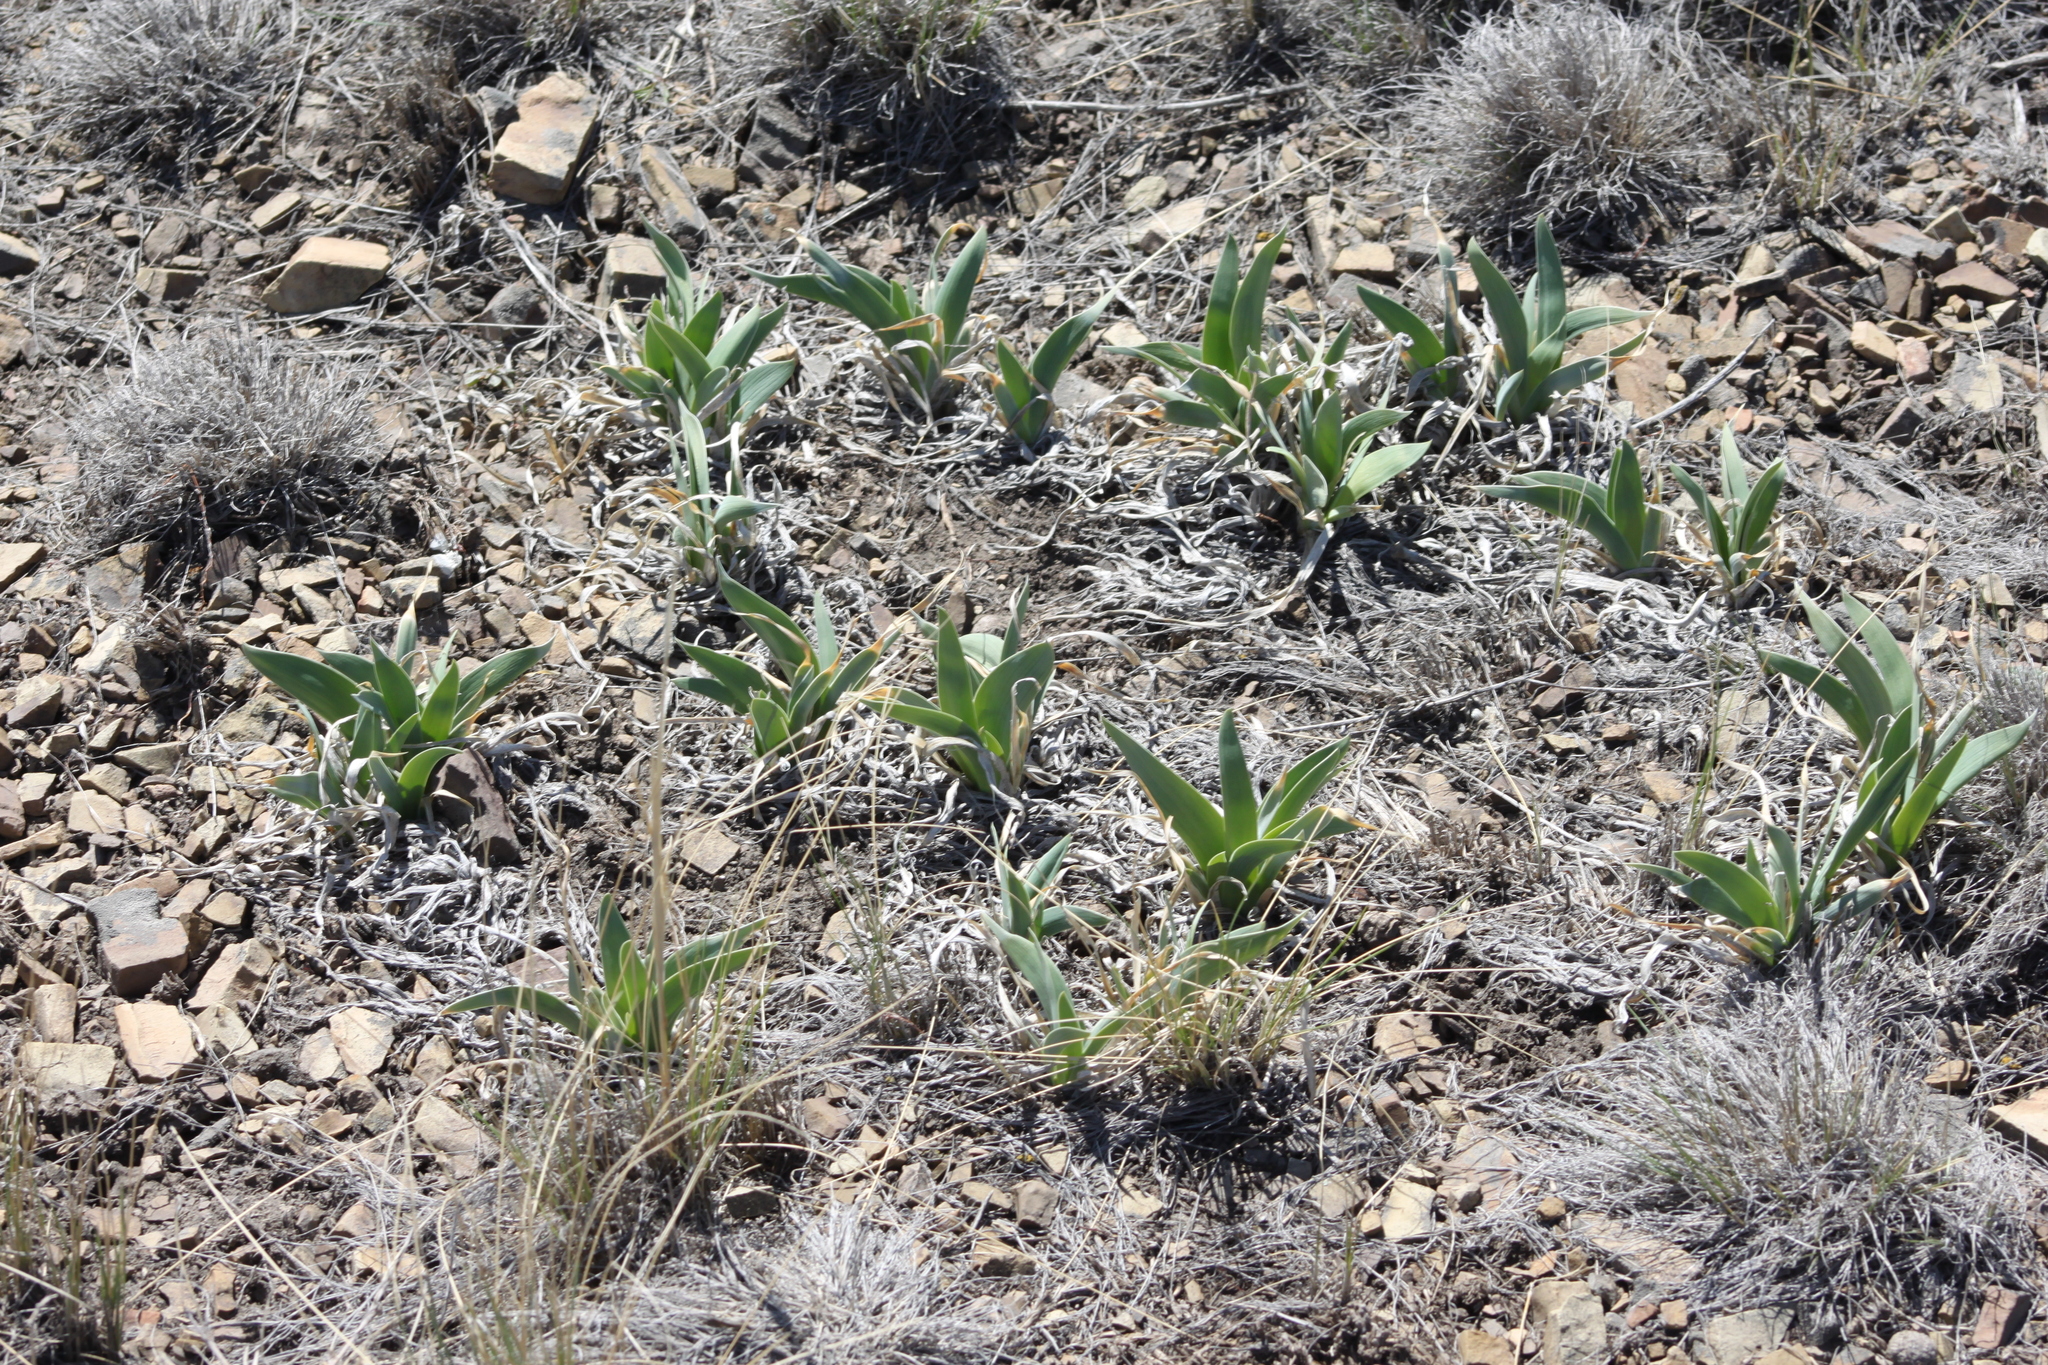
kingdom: Plantae
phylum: Tracheophyta
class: Liliopsida
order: Asparagales
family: Iridaceae
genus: Iris
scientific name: Iris glaucescens
